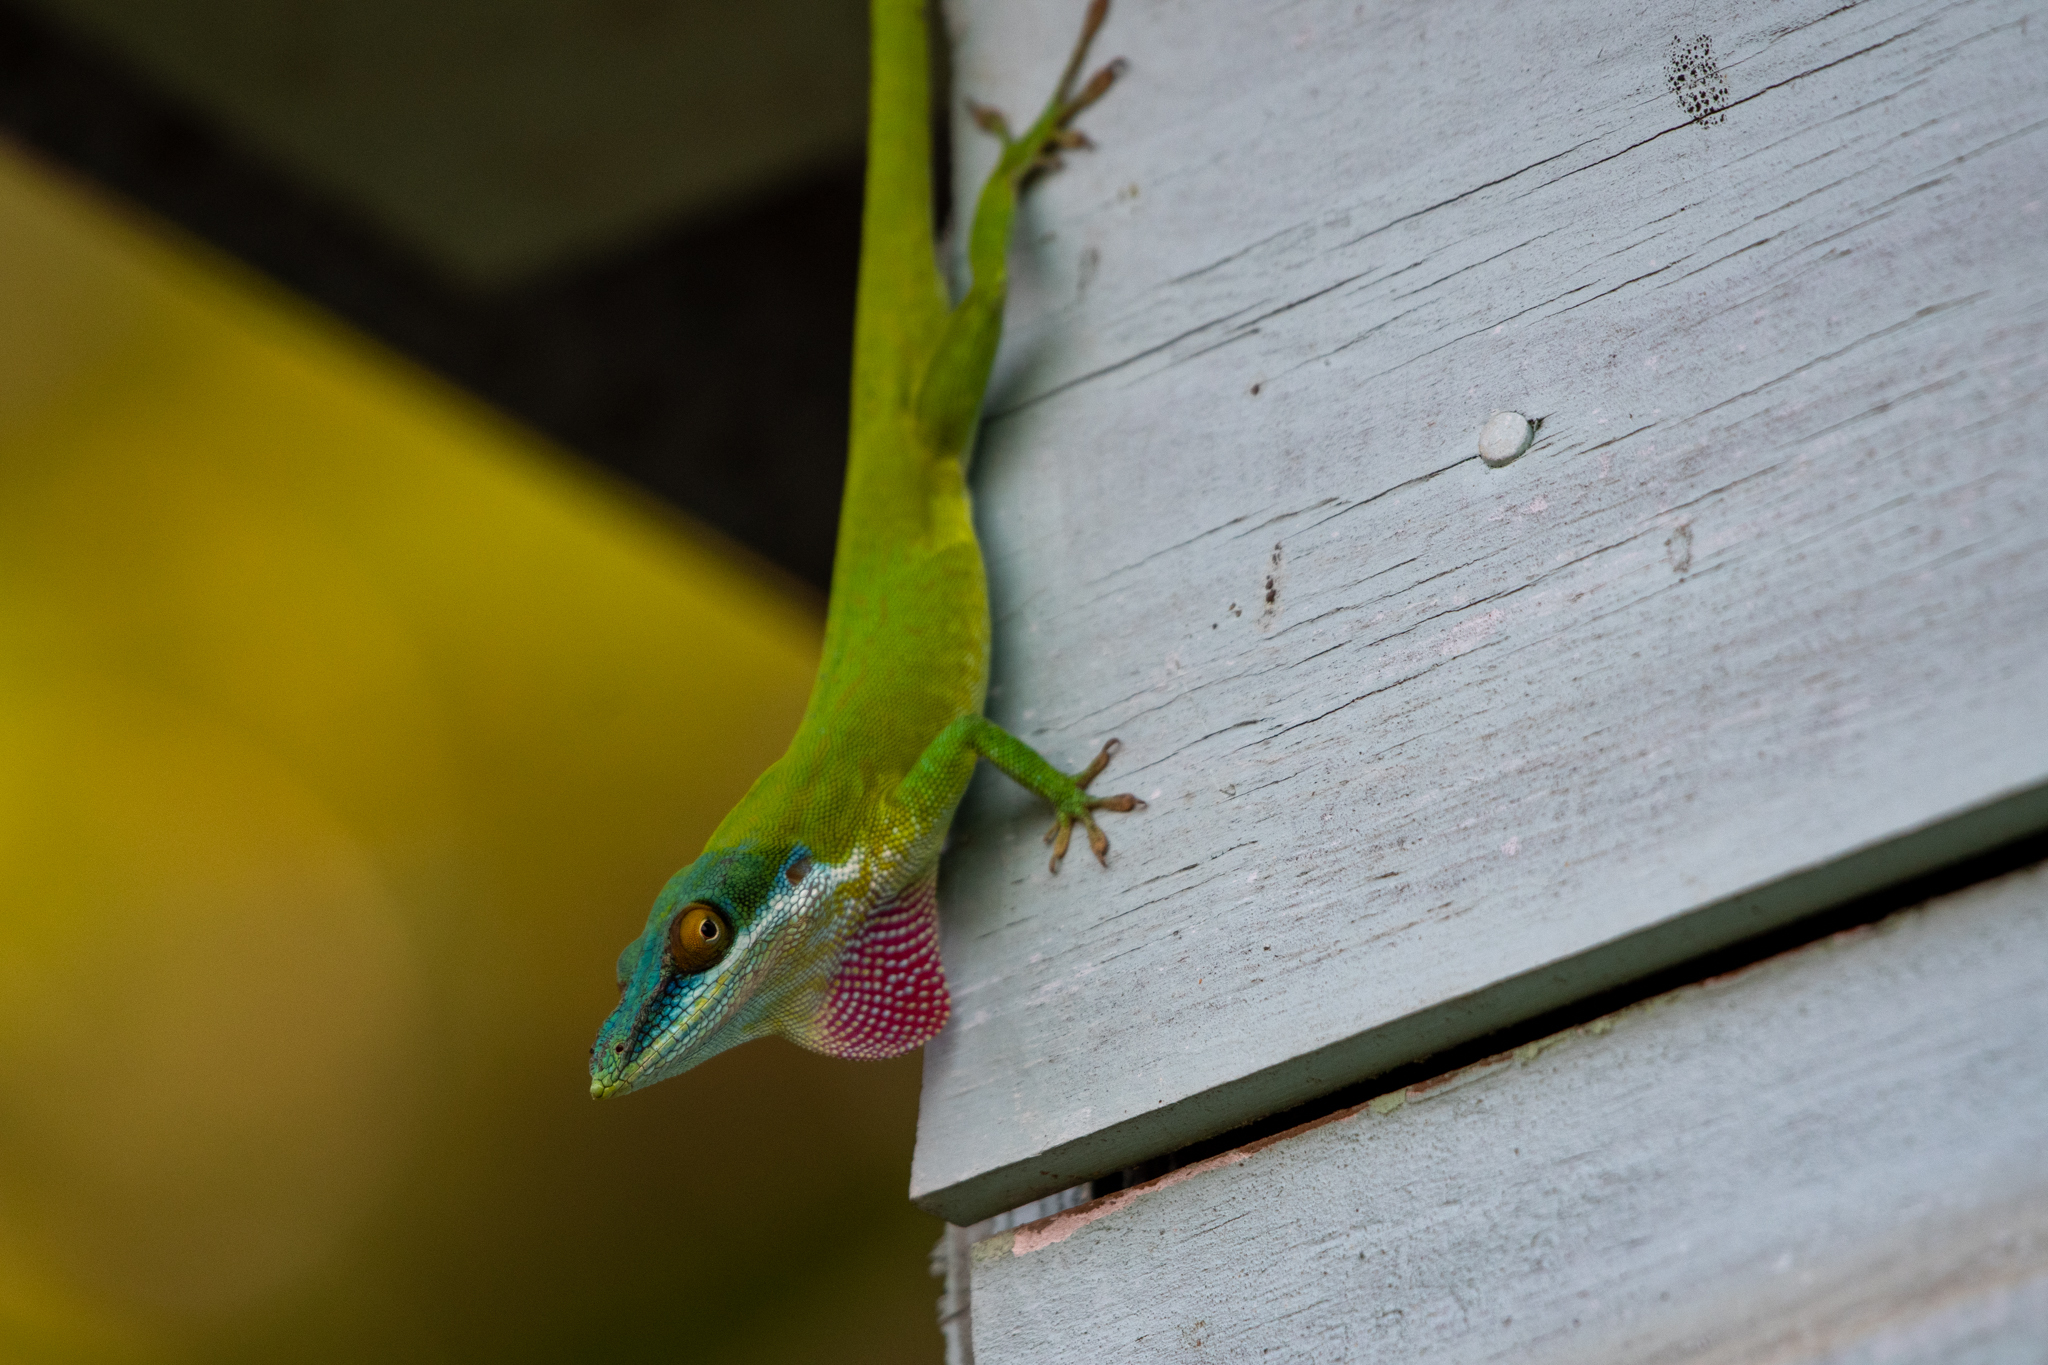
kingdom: Animalia
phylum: Chordata
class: Squamata
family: Dactyloidae
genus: Anolis
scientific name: Anolis allisoni
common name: Allison's anole
